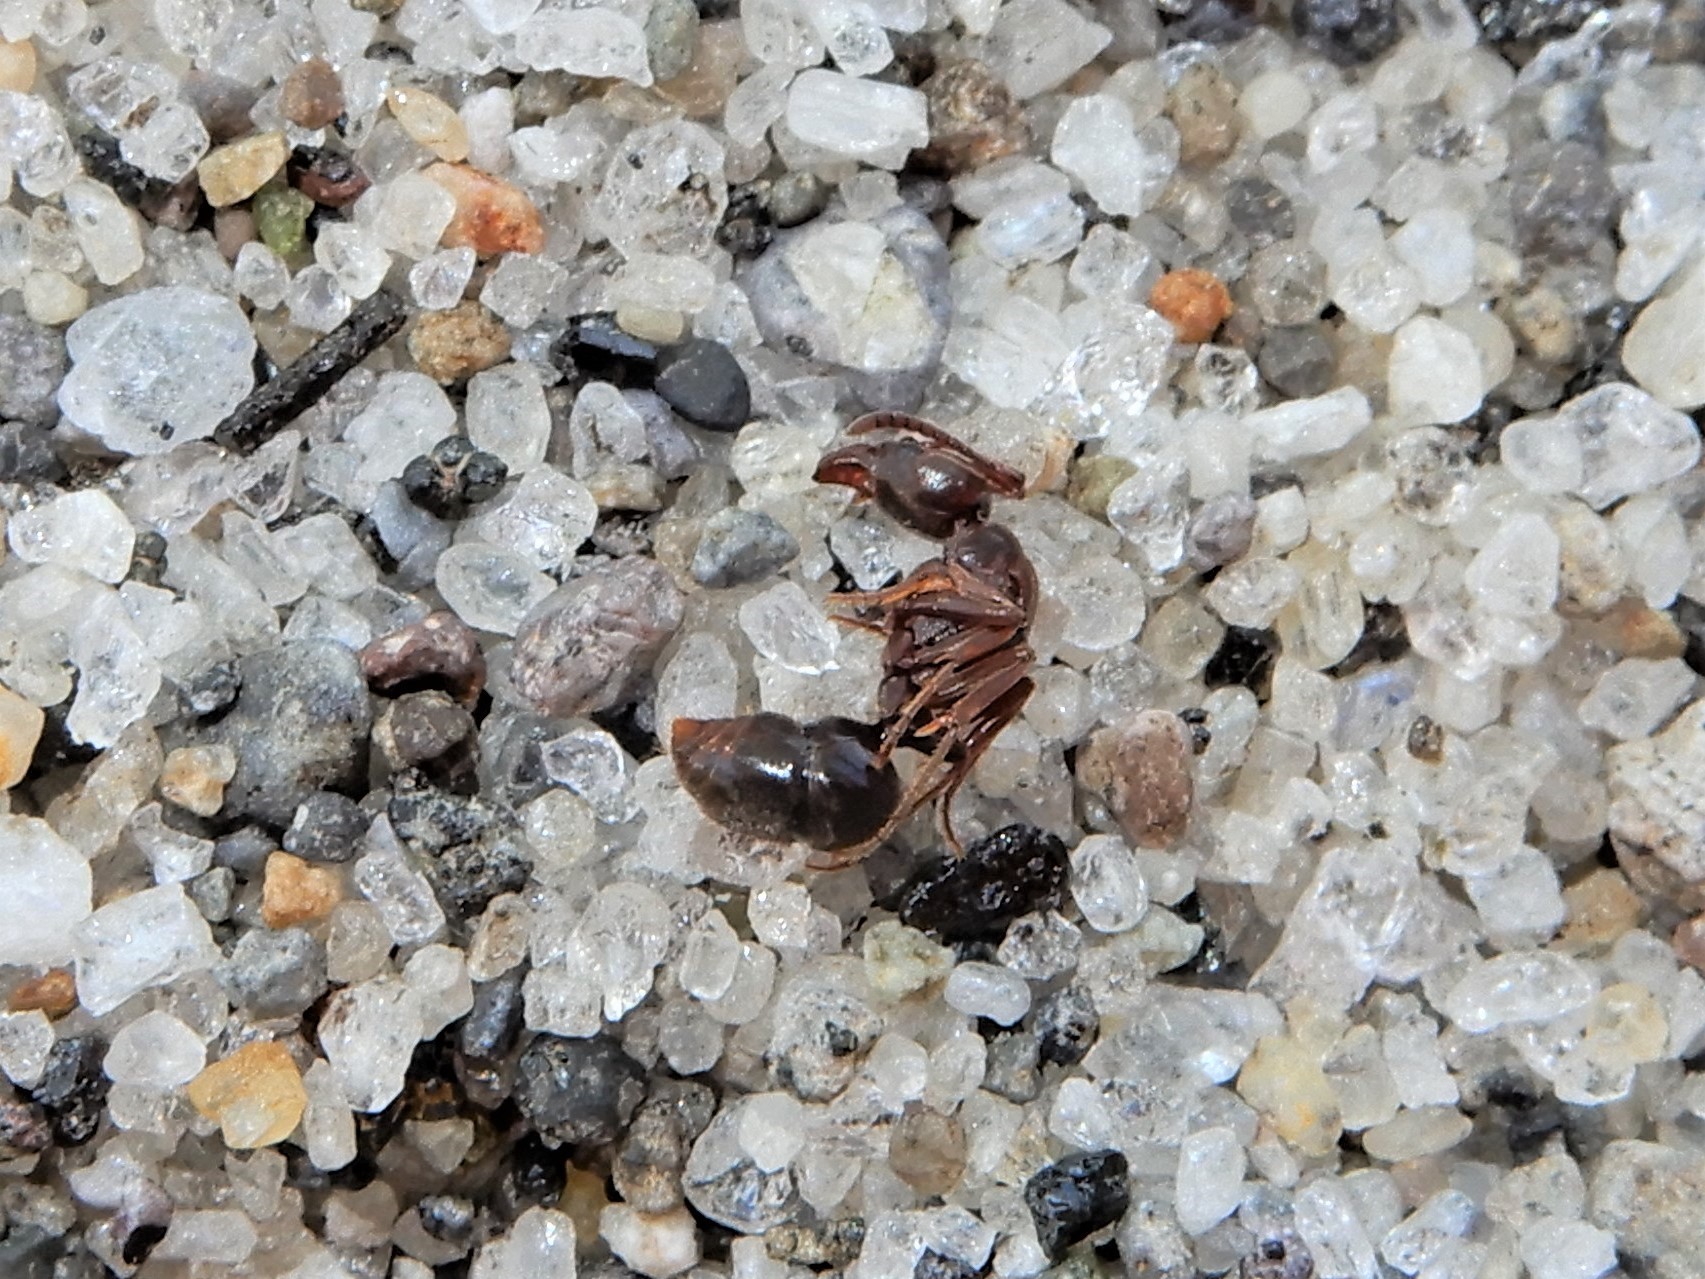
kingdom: Animalia
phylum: Arthropoda
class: Insecta
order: Hymenoptera
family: Formicidae
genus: Austroponera
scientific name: Austroponera
